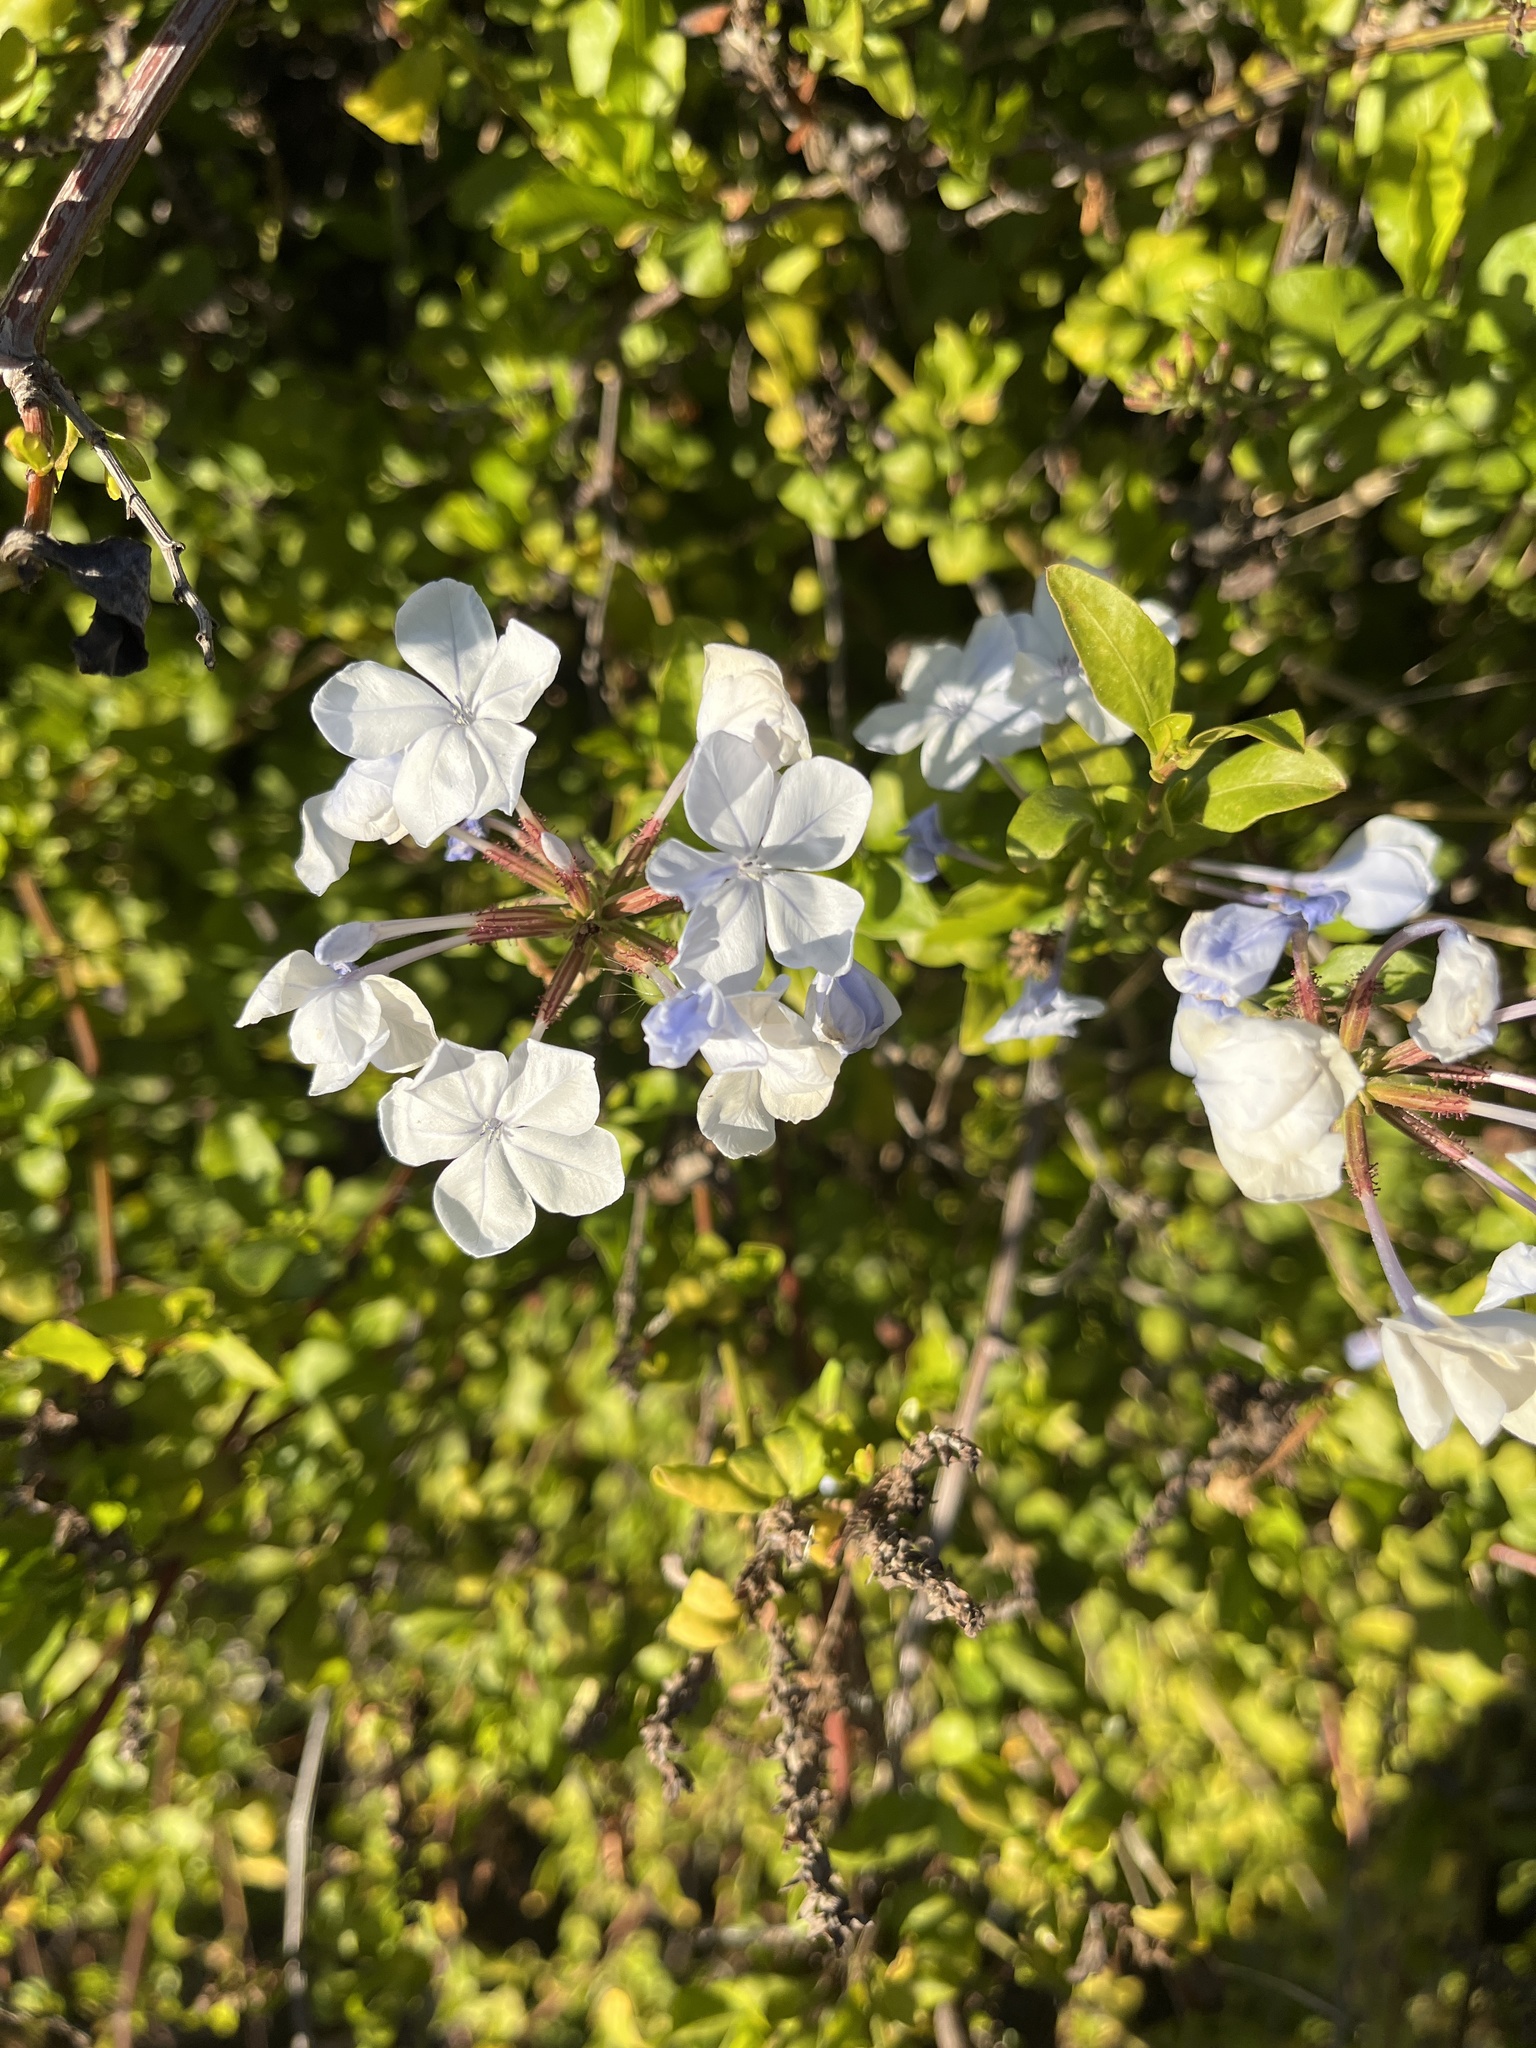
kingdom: Plantae
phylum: Tracheophyta
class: Magnoliopsida
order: Caryophyllales
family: Plumbaginaceae
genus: Plumbago
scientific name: Plumbago auriculata
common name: Cape leadwort
